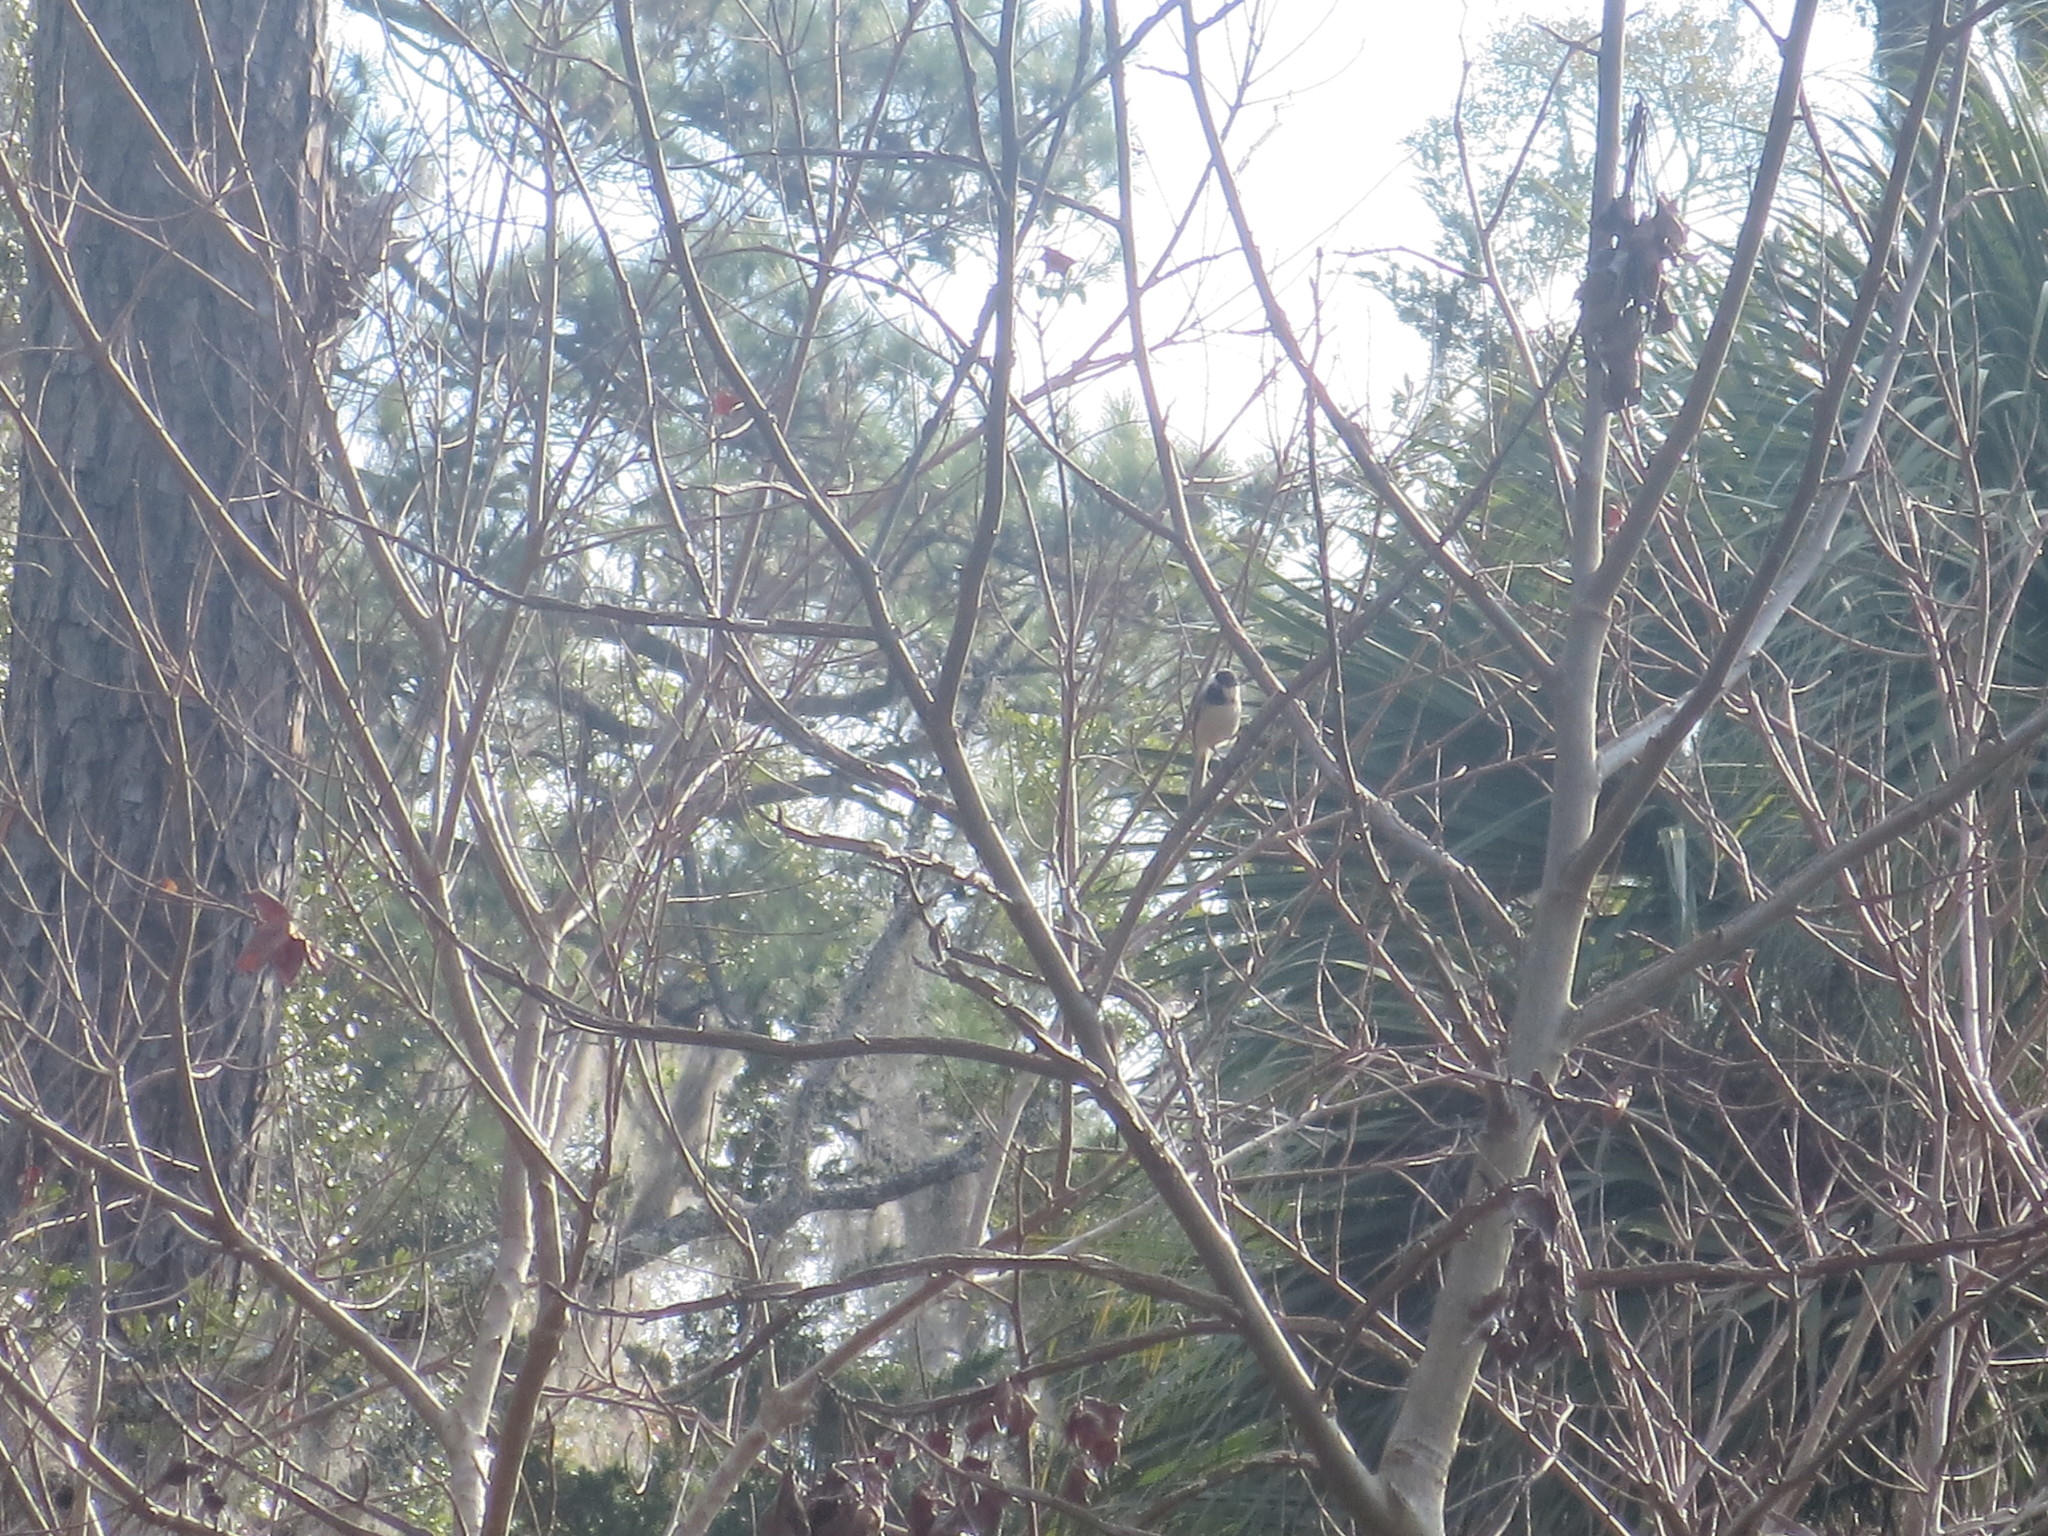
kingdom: Animalia
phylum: Chordata
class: Aves
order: Passeriformes
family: Paridae
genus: Poecile
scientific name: Poecile carolinensis
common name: Carolina chickadee
